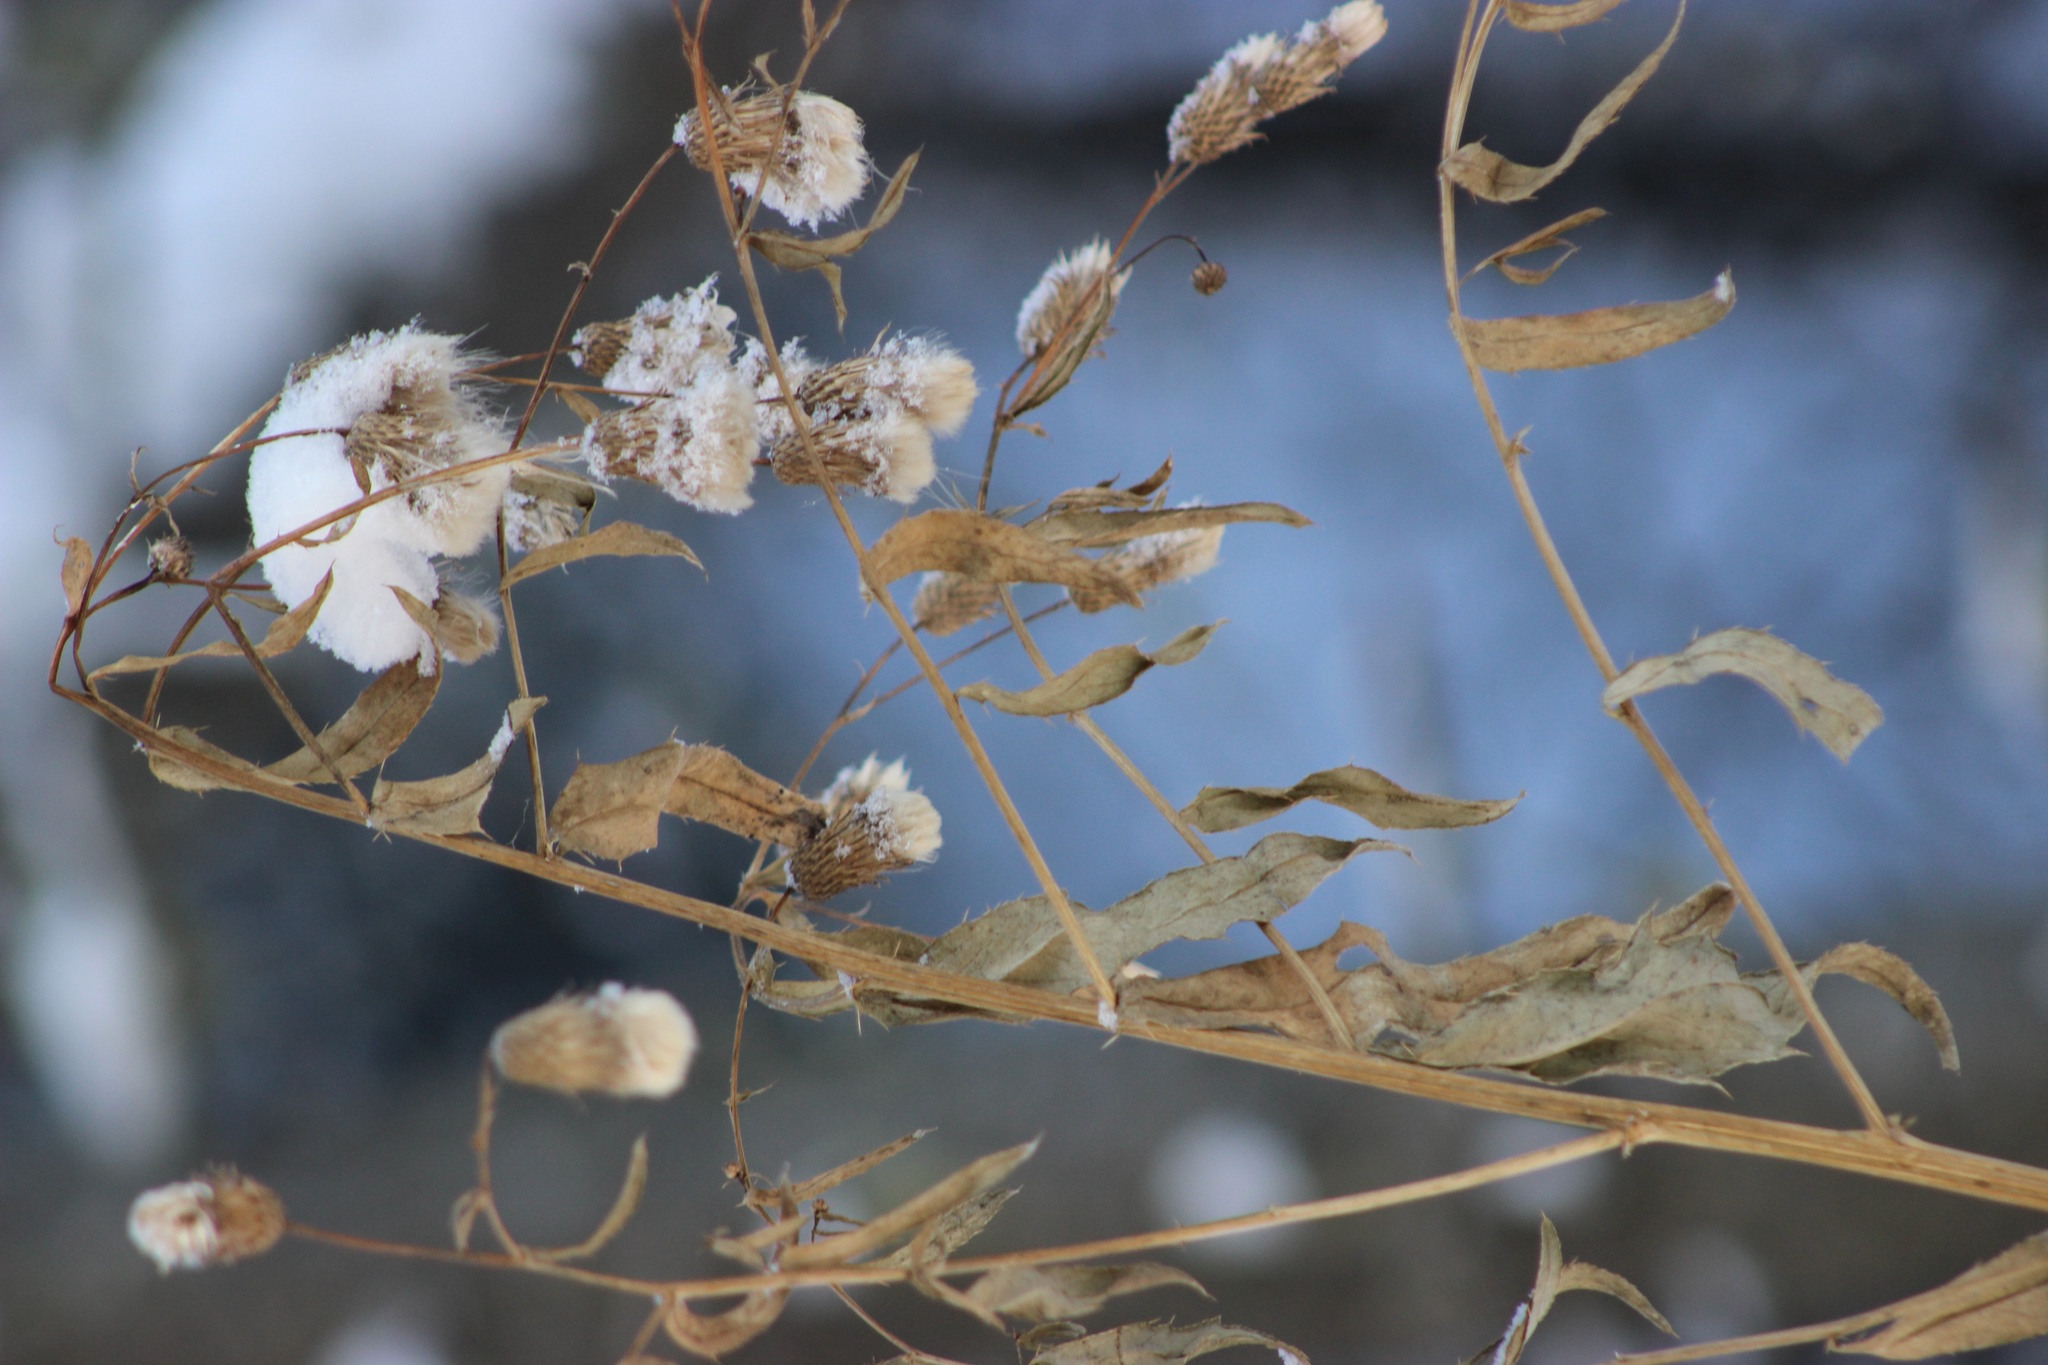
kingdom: Plantae
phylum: Tracheophyta
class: Magnoliopsida
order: Asterales
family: Asteraceae
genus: Cirsium
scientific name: Cirsium arvense
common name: Creeping thistle
